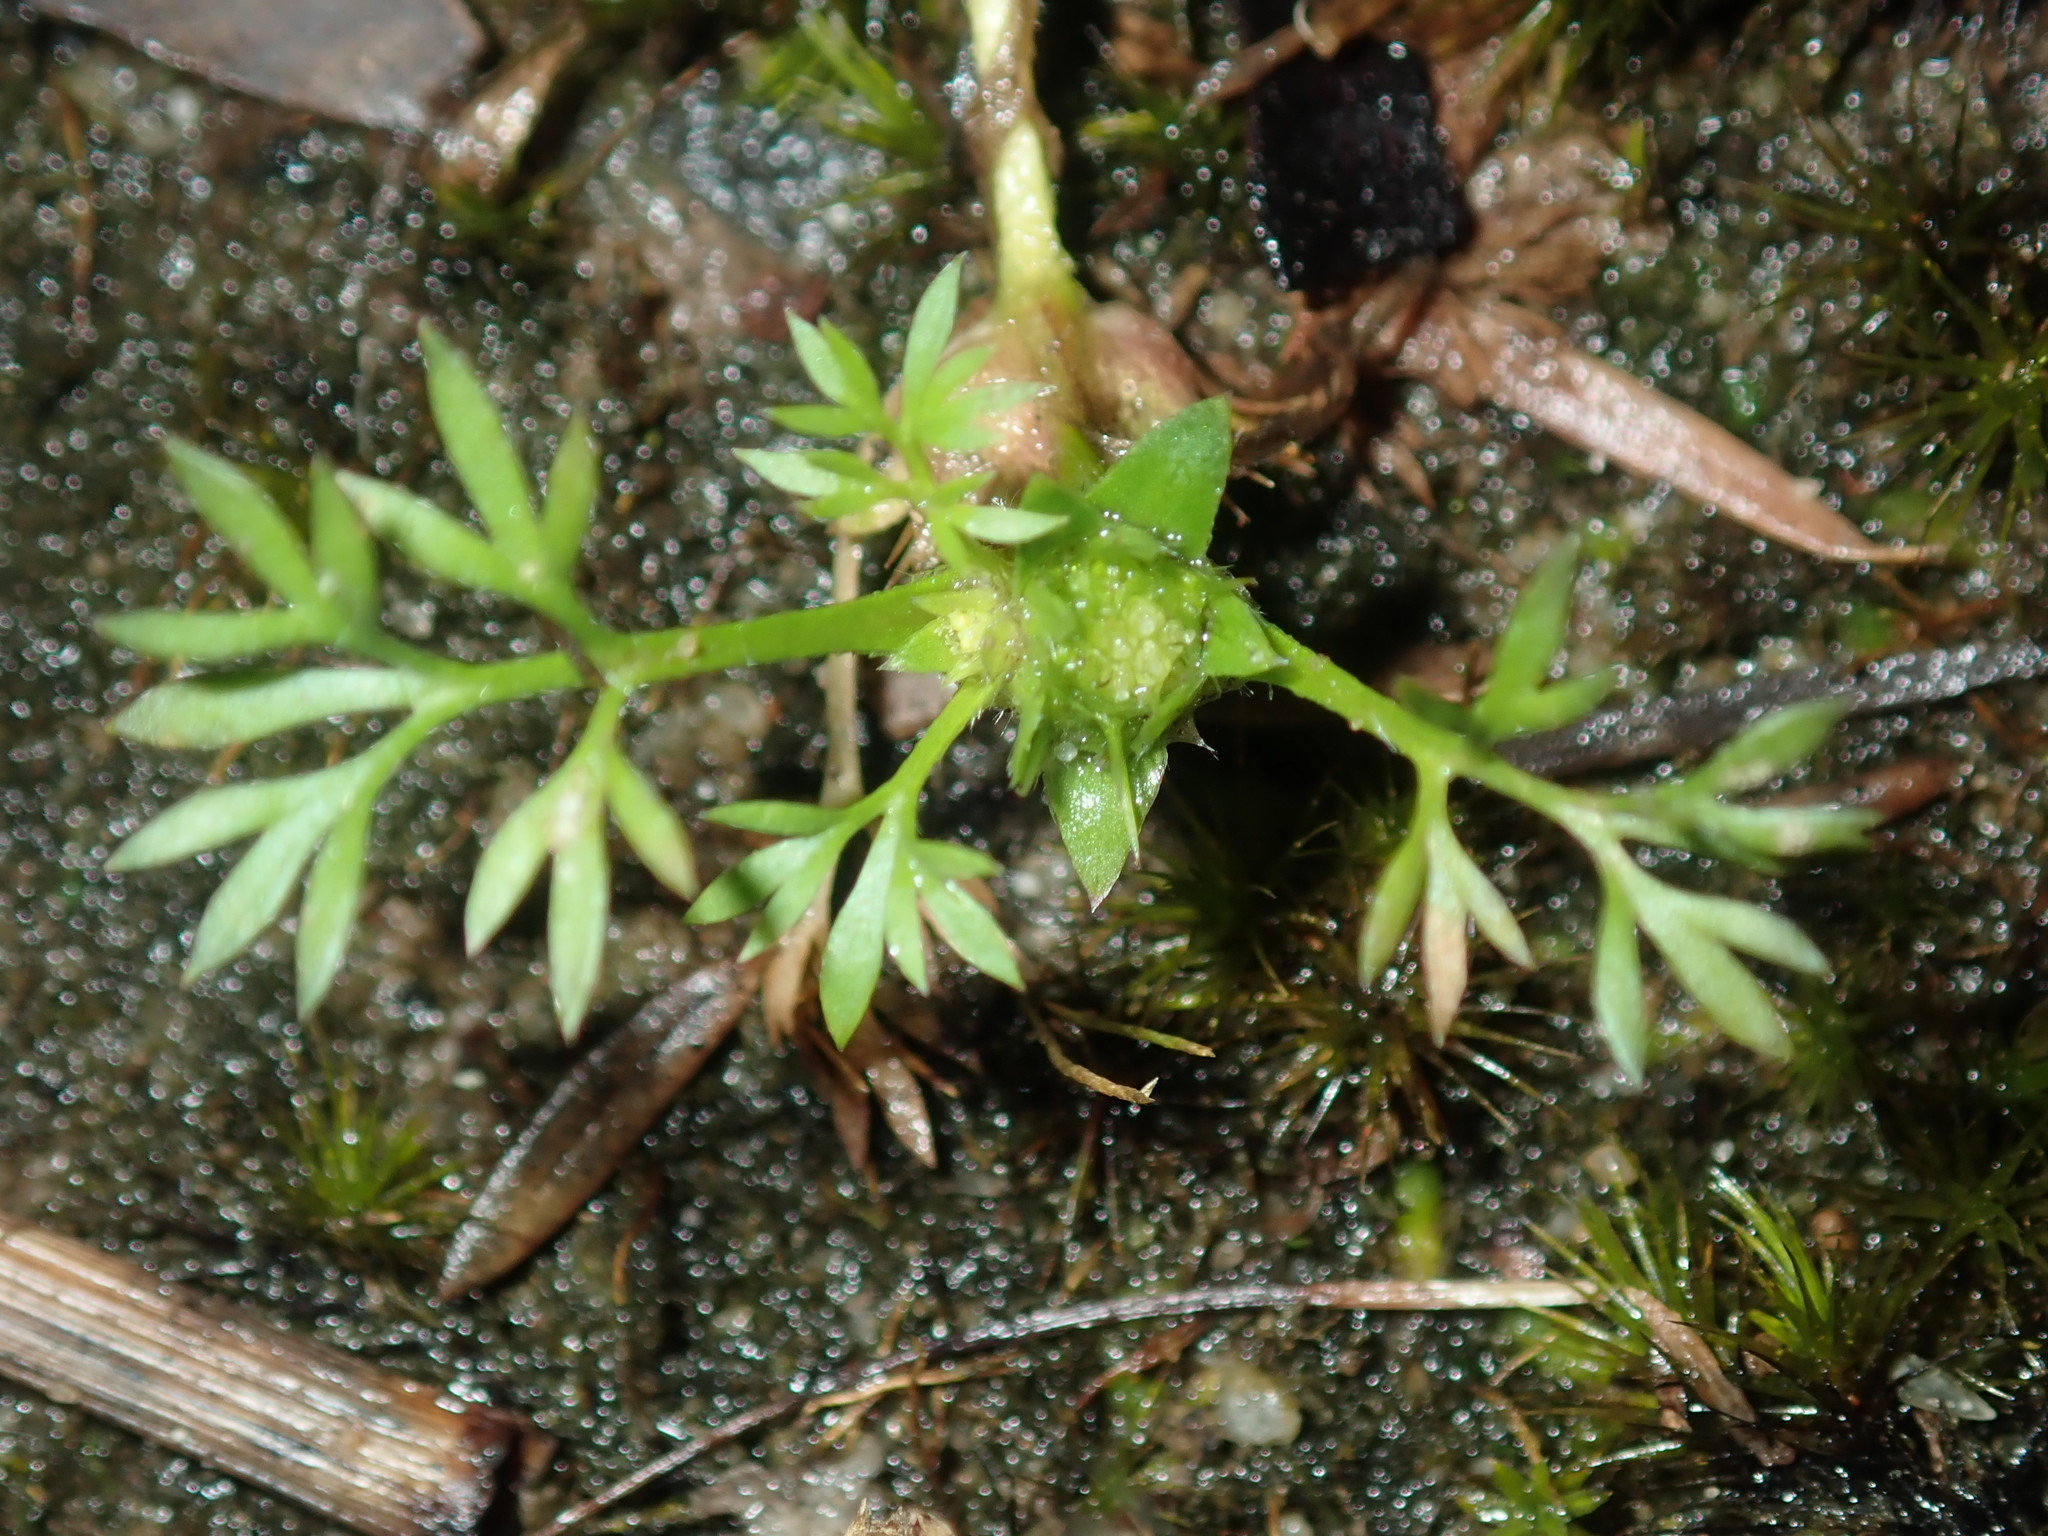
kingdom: Plantae
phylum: Tracheophyta
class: Magnoliopsida
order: Asterales
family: Asteraceae
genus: Soliva
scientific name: Soliva sessilis
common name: Field burrweed
